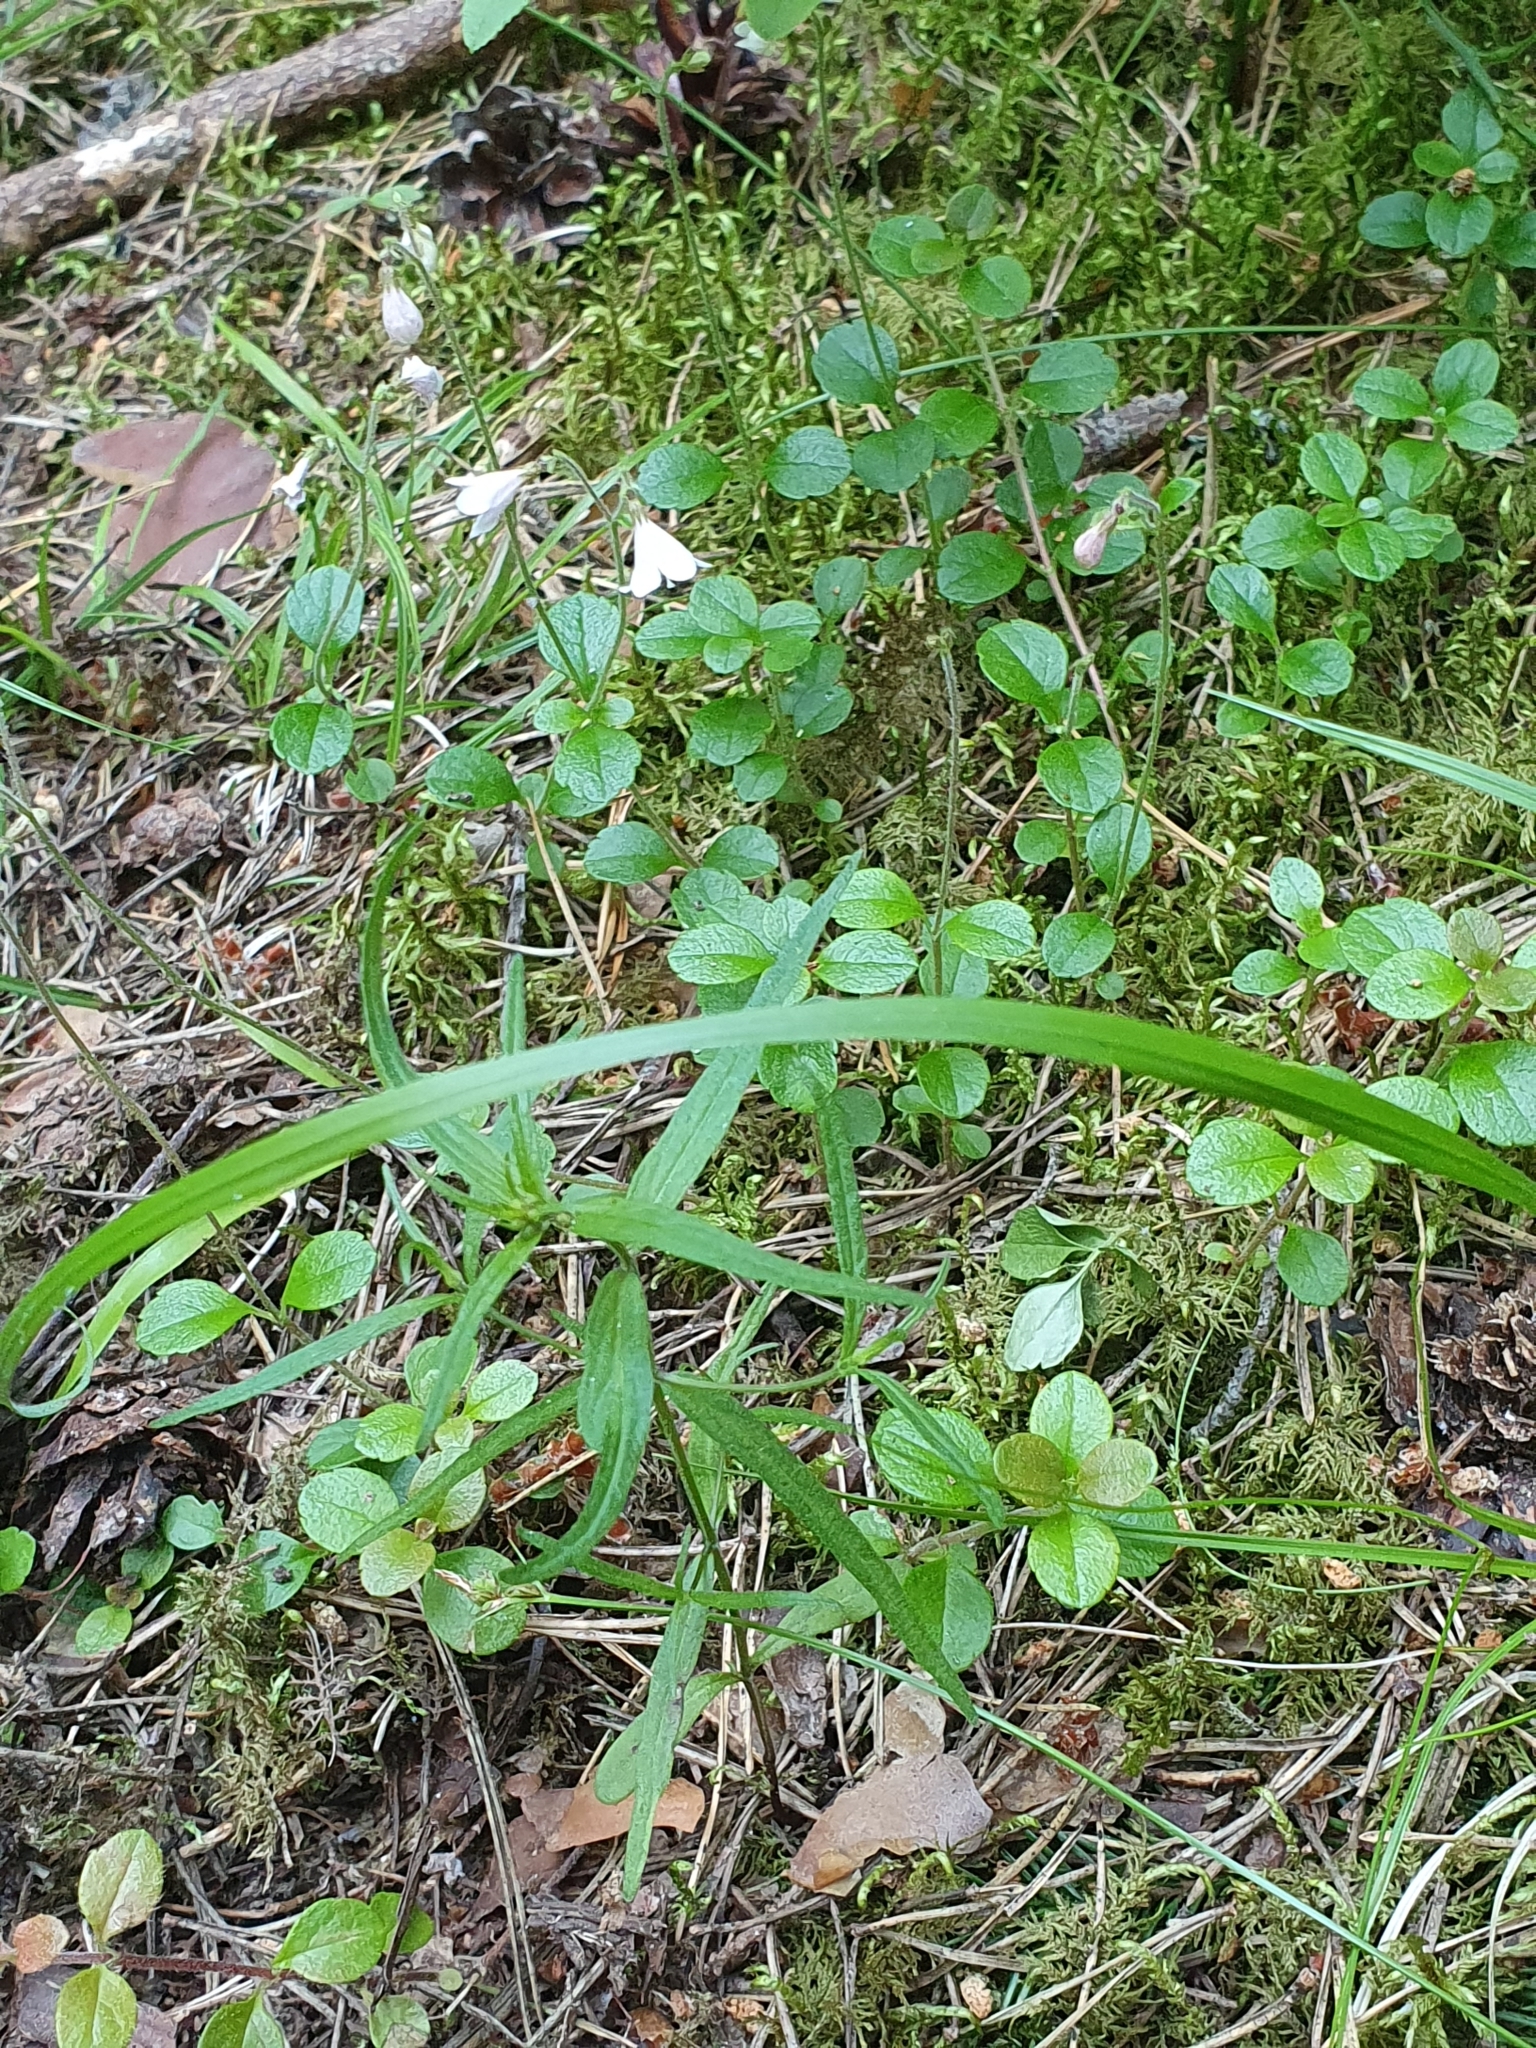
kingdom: Plantae
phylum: Tracheophyta
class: Magnoliopsida
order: Dipsacales
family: Caprifoliaceae
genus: Linnaea
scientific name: Linnaea borealis
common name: Twinflower
